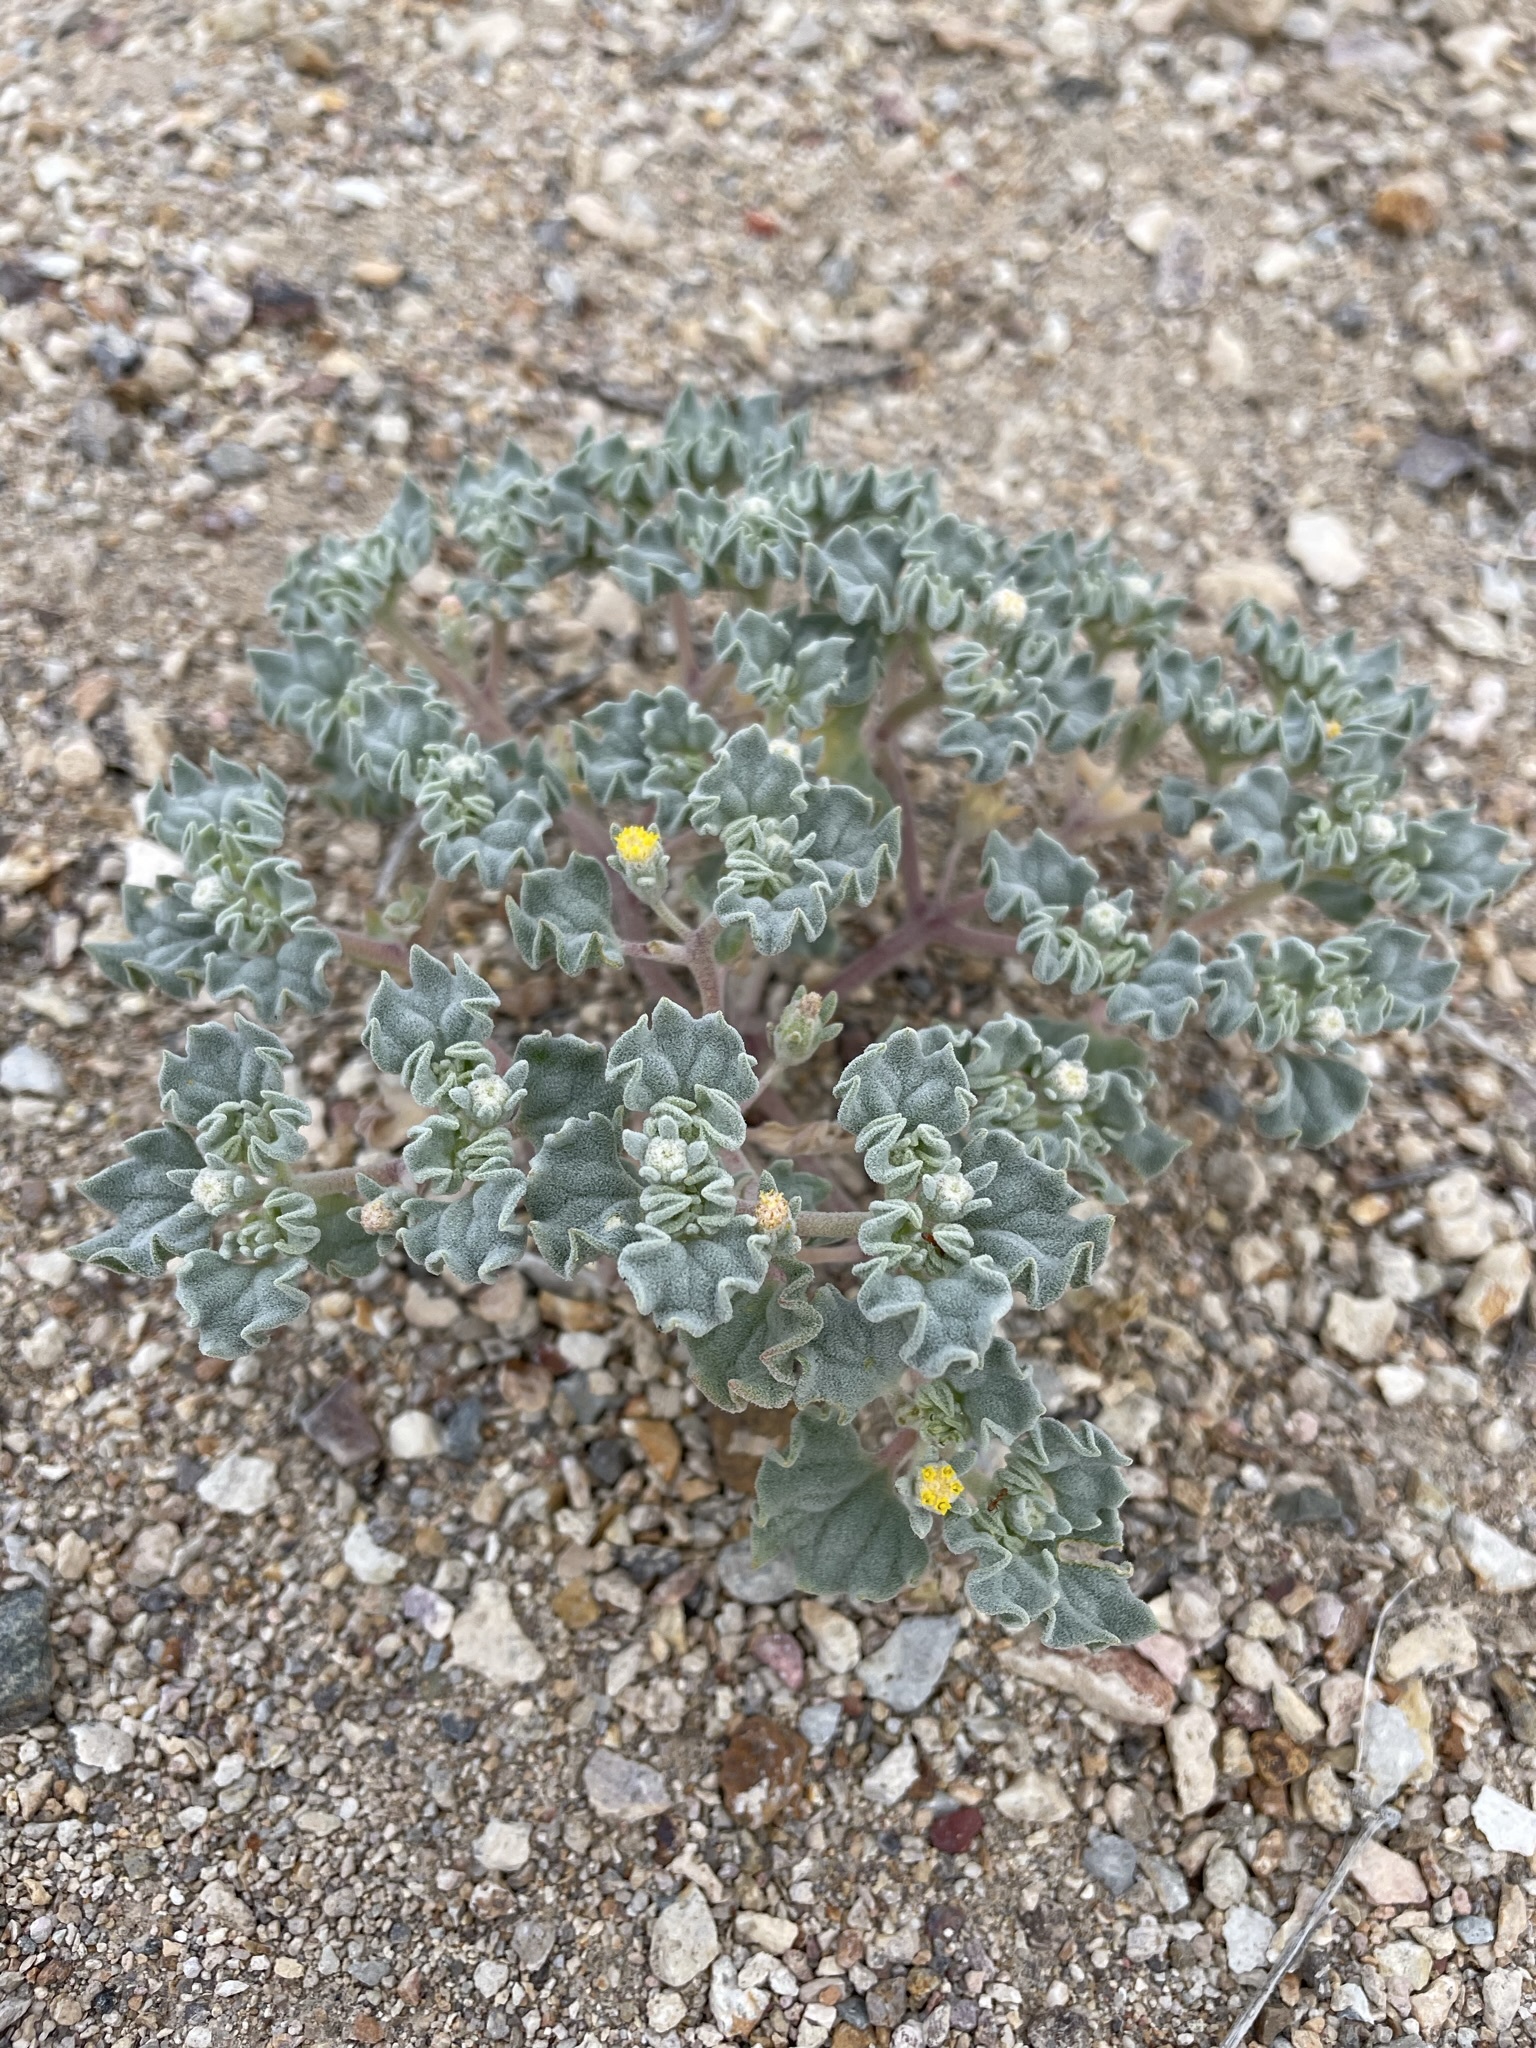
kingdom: Plantae
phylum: Tracheophyta
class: Magnoliopsida
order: Asterales
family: Asteraceae
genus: Psathyrotes
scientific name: Psathyrotes annua
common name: Mealy rosettes
